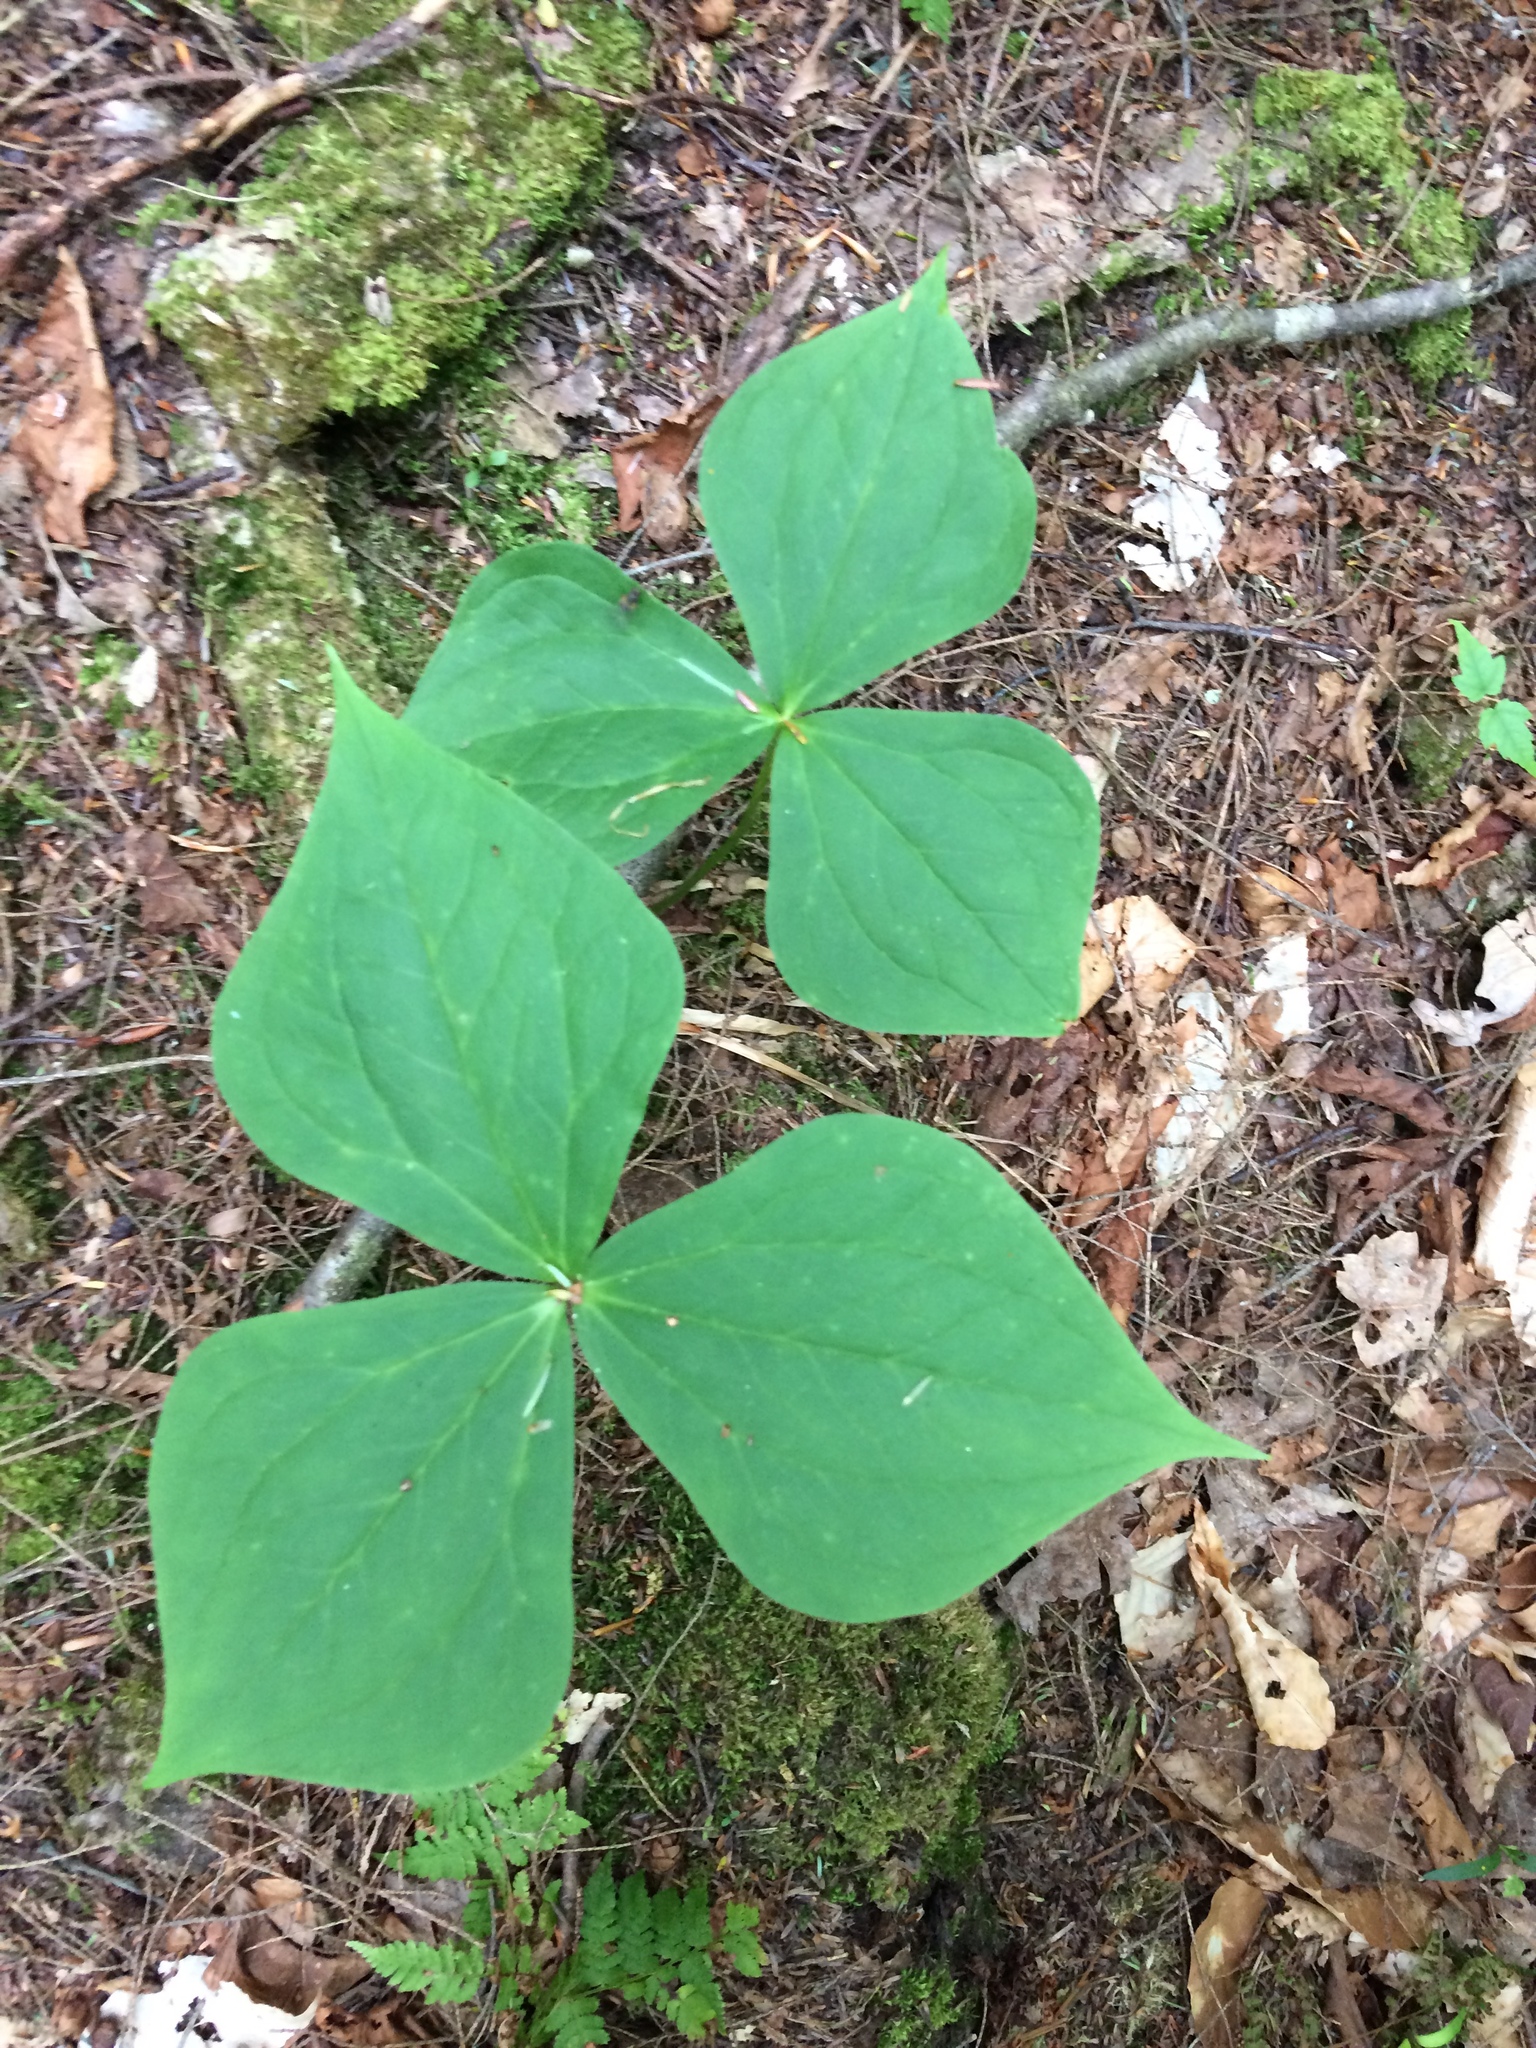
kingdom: Plantae
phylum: Tracheophyta
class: Liliopsida
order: Liliales
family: Melanthiaceae
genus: Trillium
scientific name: Trillium erectum
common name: Purple trillium
